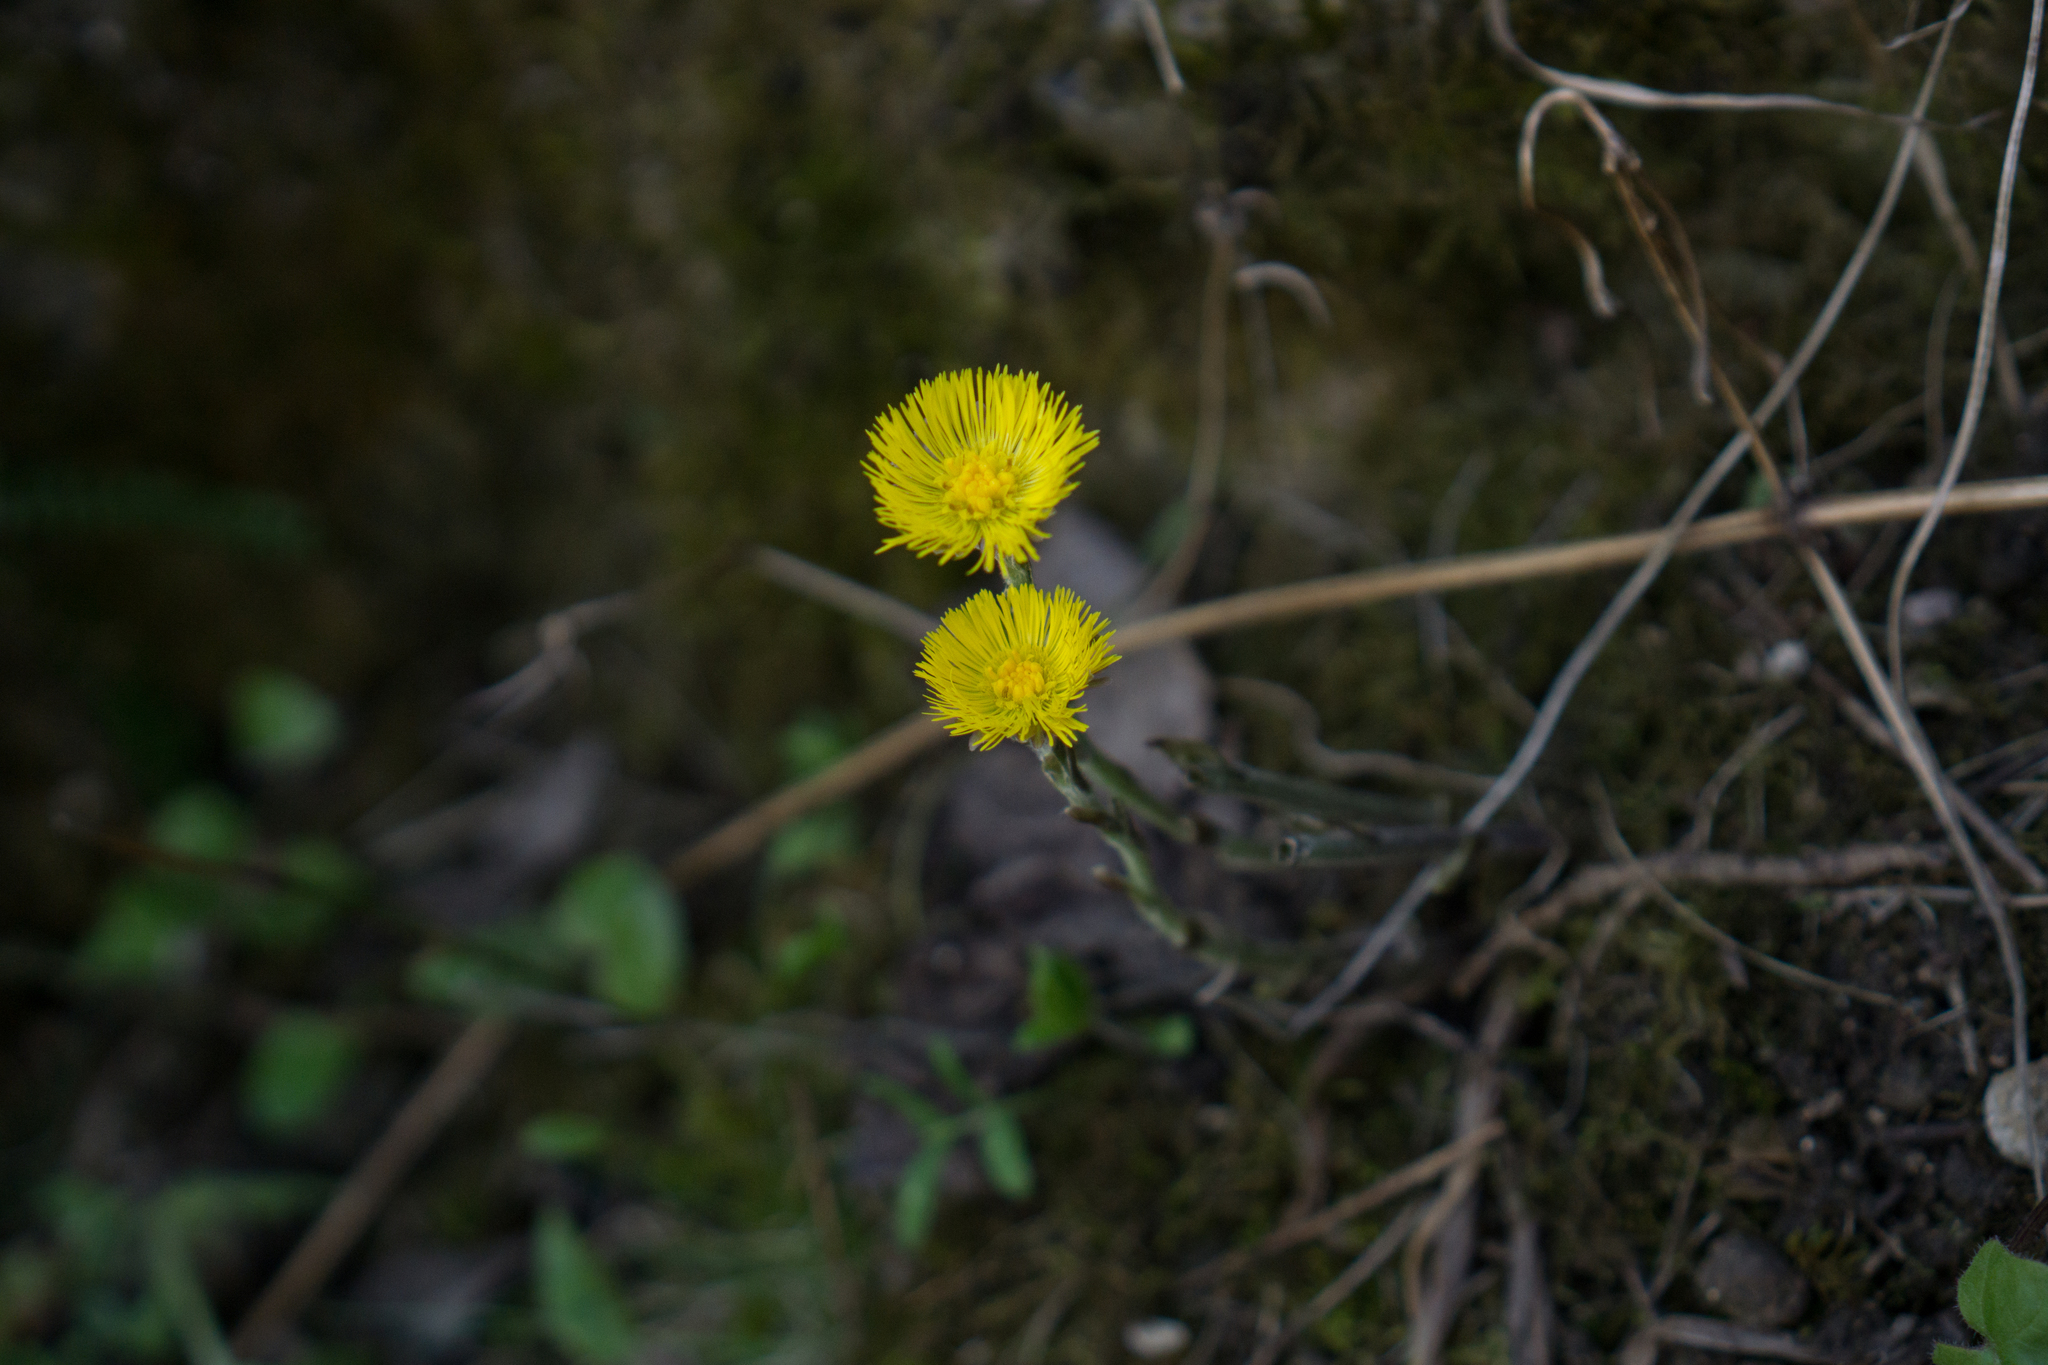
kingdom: Plantae
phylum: Tracheophyta
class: Magnoliopsida
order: Asterales
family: Asteraceae
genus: Tussilago
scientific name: Tussilago farfara
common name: Coltsfoot
